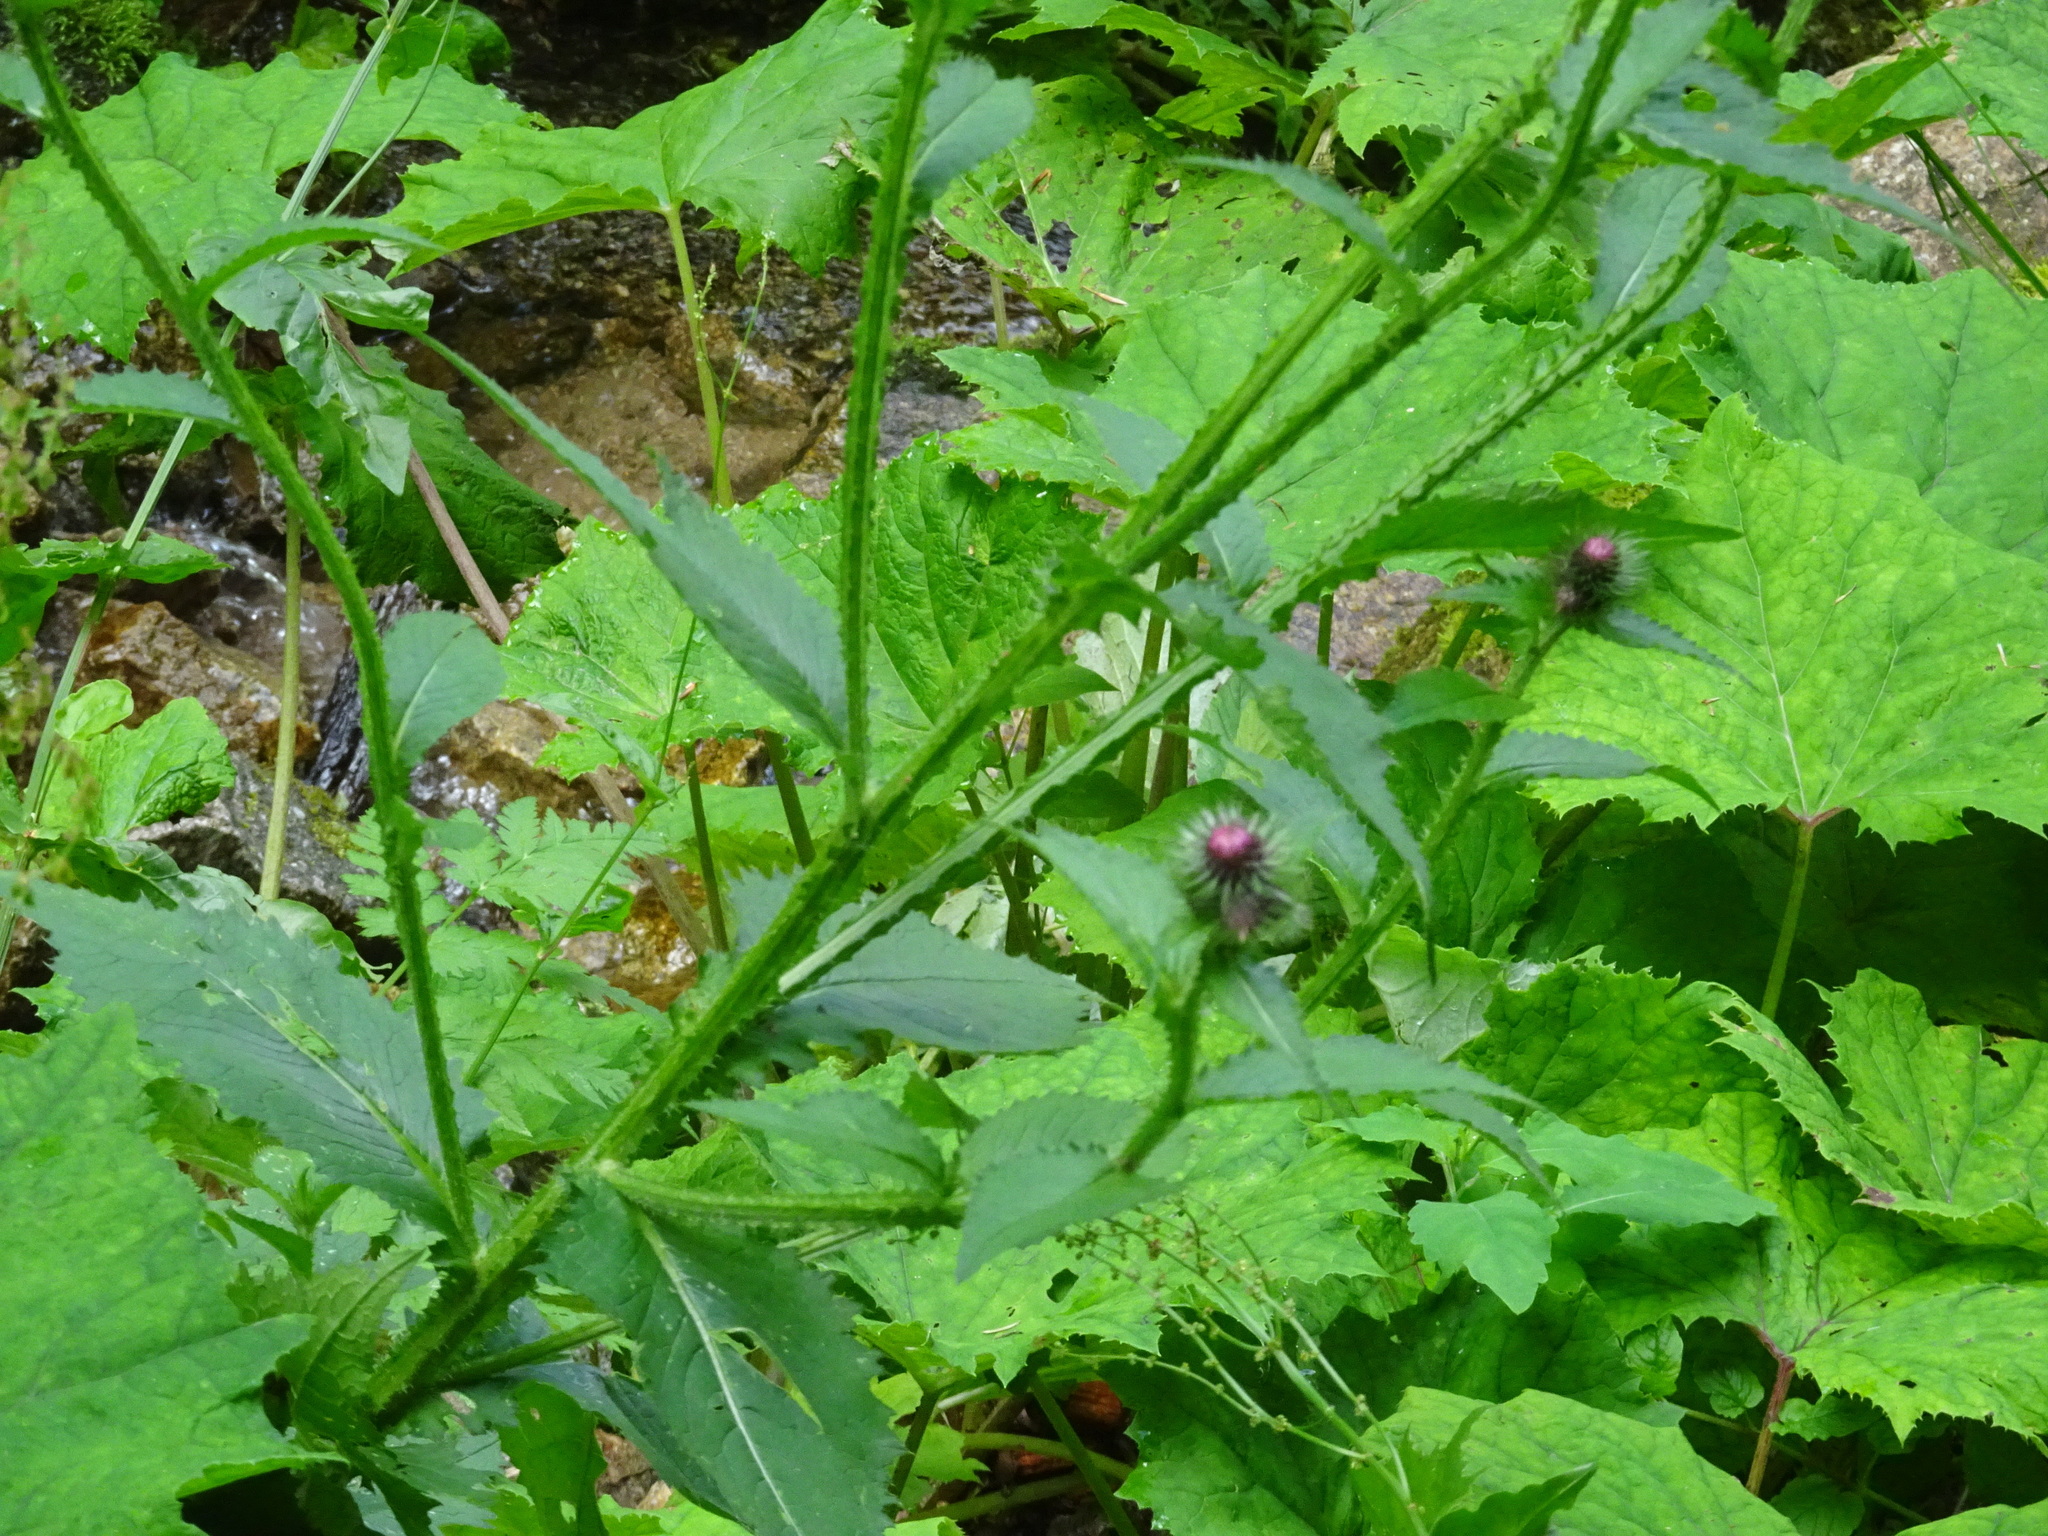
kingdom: Plantae
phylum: Tracheophyta
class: Magnoliopsida
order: Asterales
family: Asteraceae
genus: Carduus
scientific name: Carduus crispus
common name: Welted thistle
